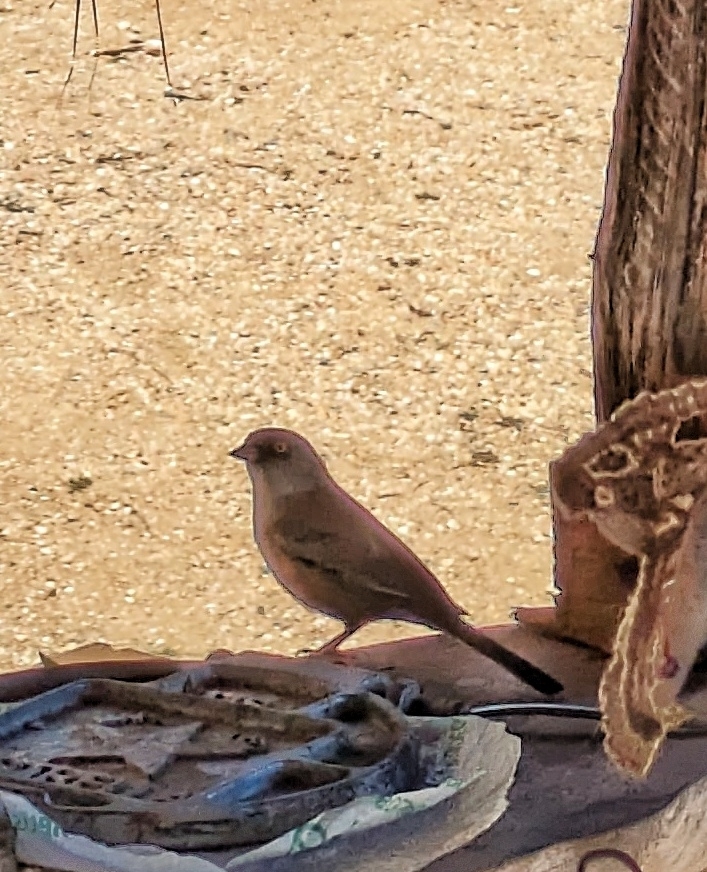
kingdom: Animalia
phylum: Chordata
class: Aves
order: Passeriformes
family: Passerellidae
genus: Junco
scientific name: Junco bairdi
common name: Baird's junco
